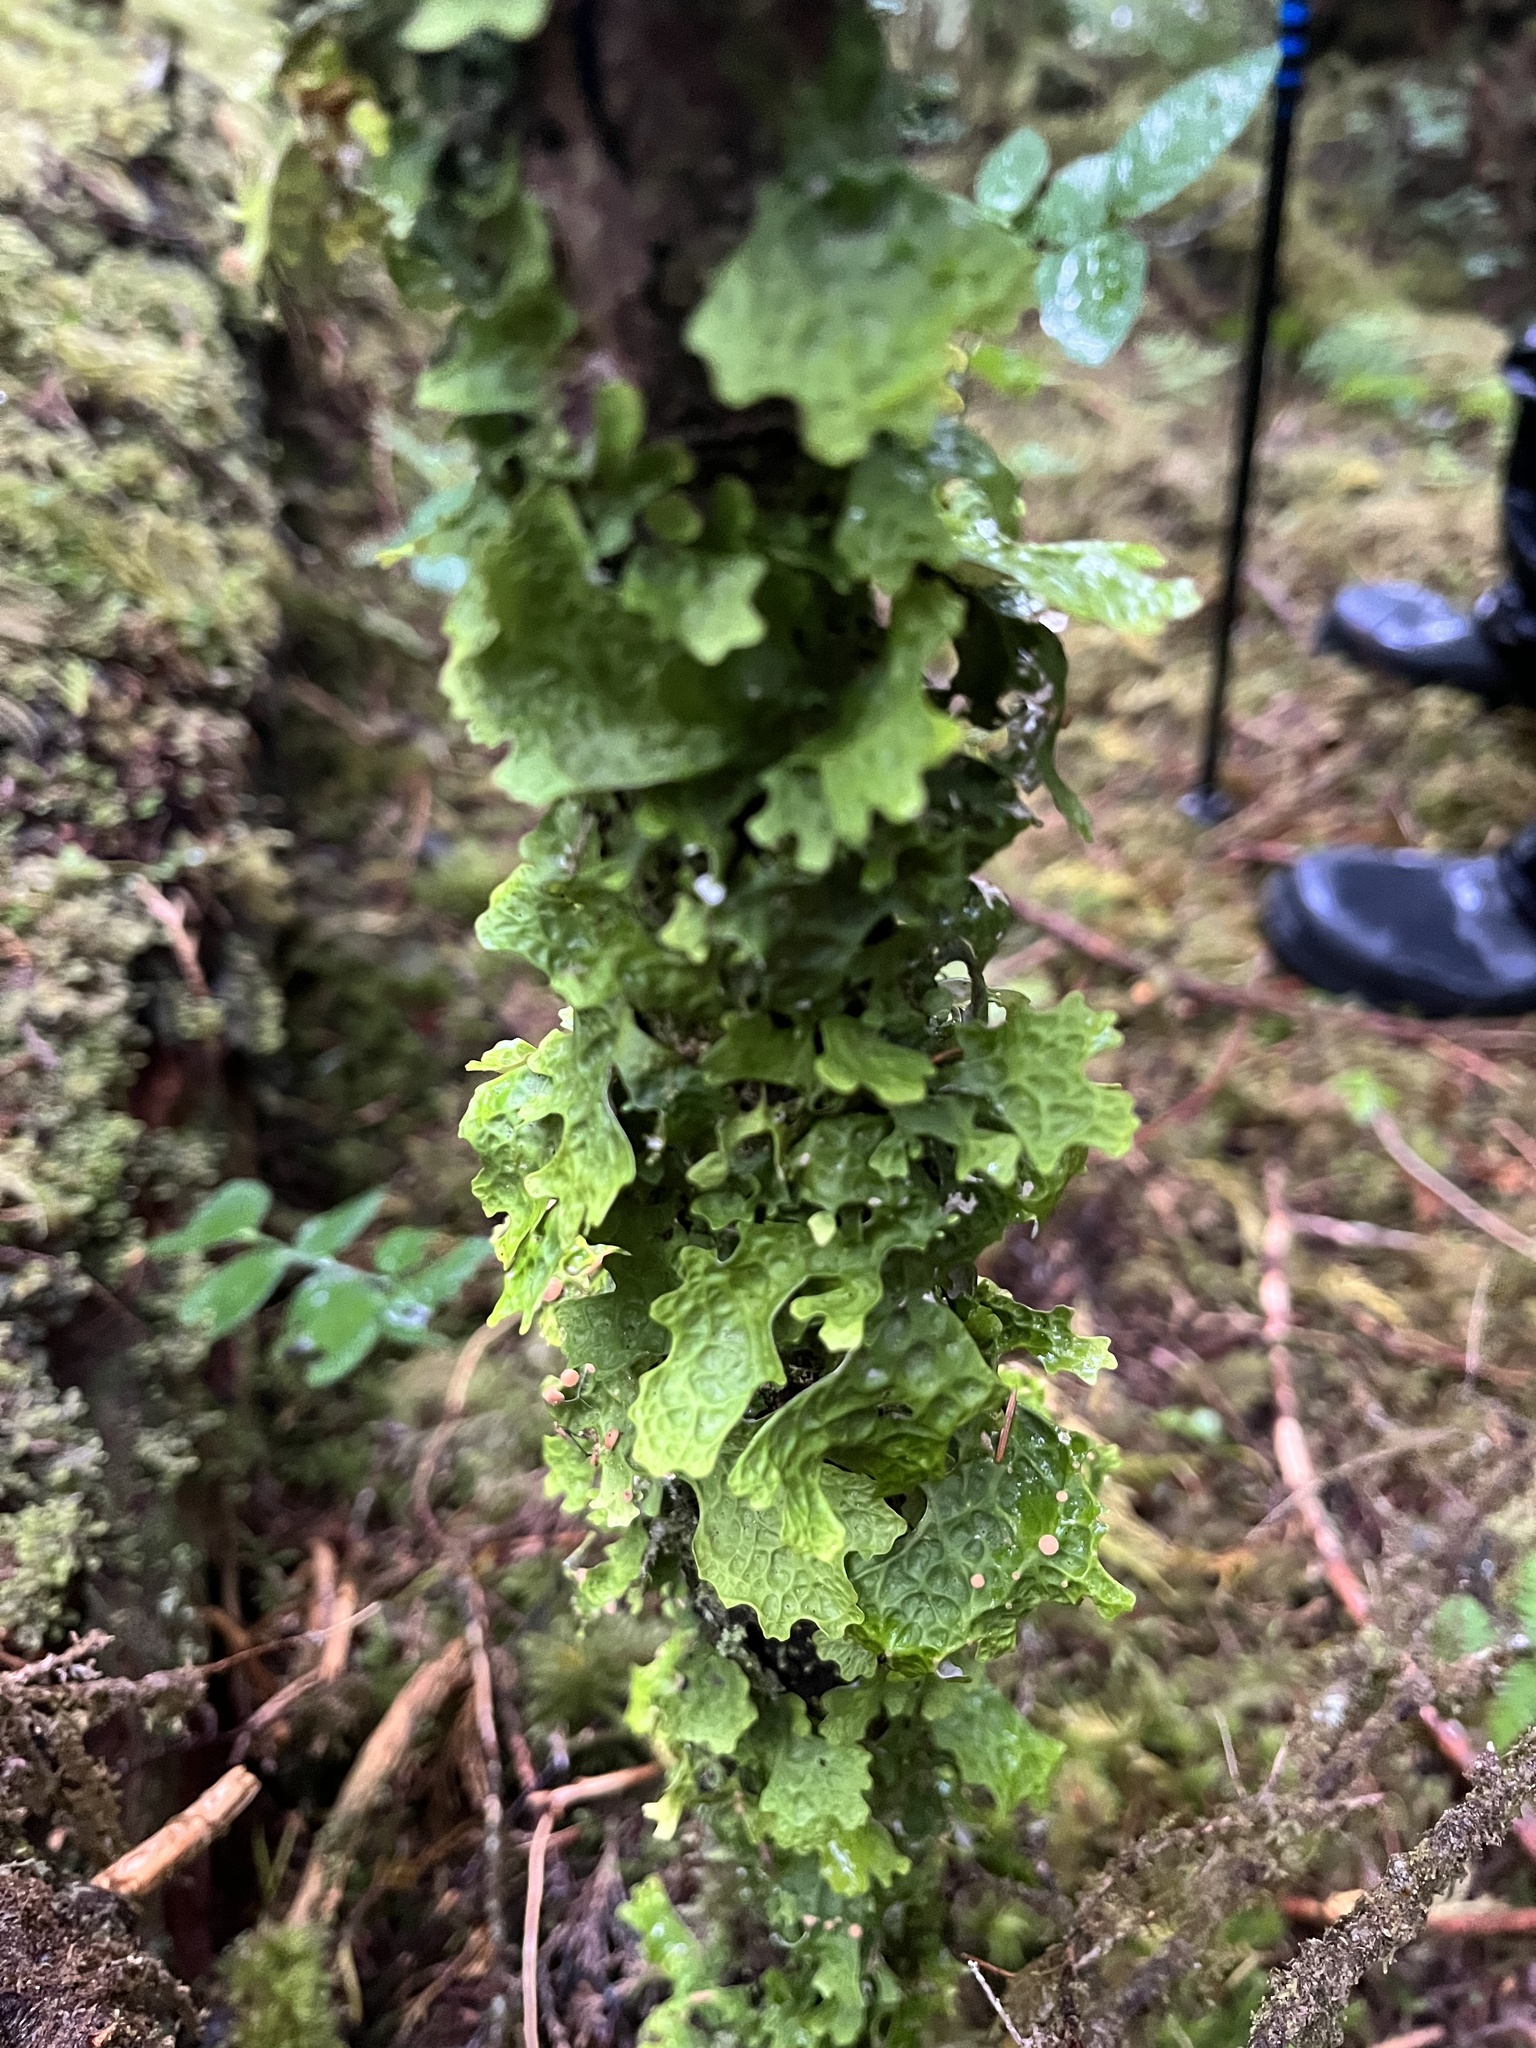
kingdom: Fungi
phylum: Ascomycota
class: Lecanoromycetes
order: Peltigerales
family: Lobariaceae
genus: Lobaria
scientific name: Lobaria linita
